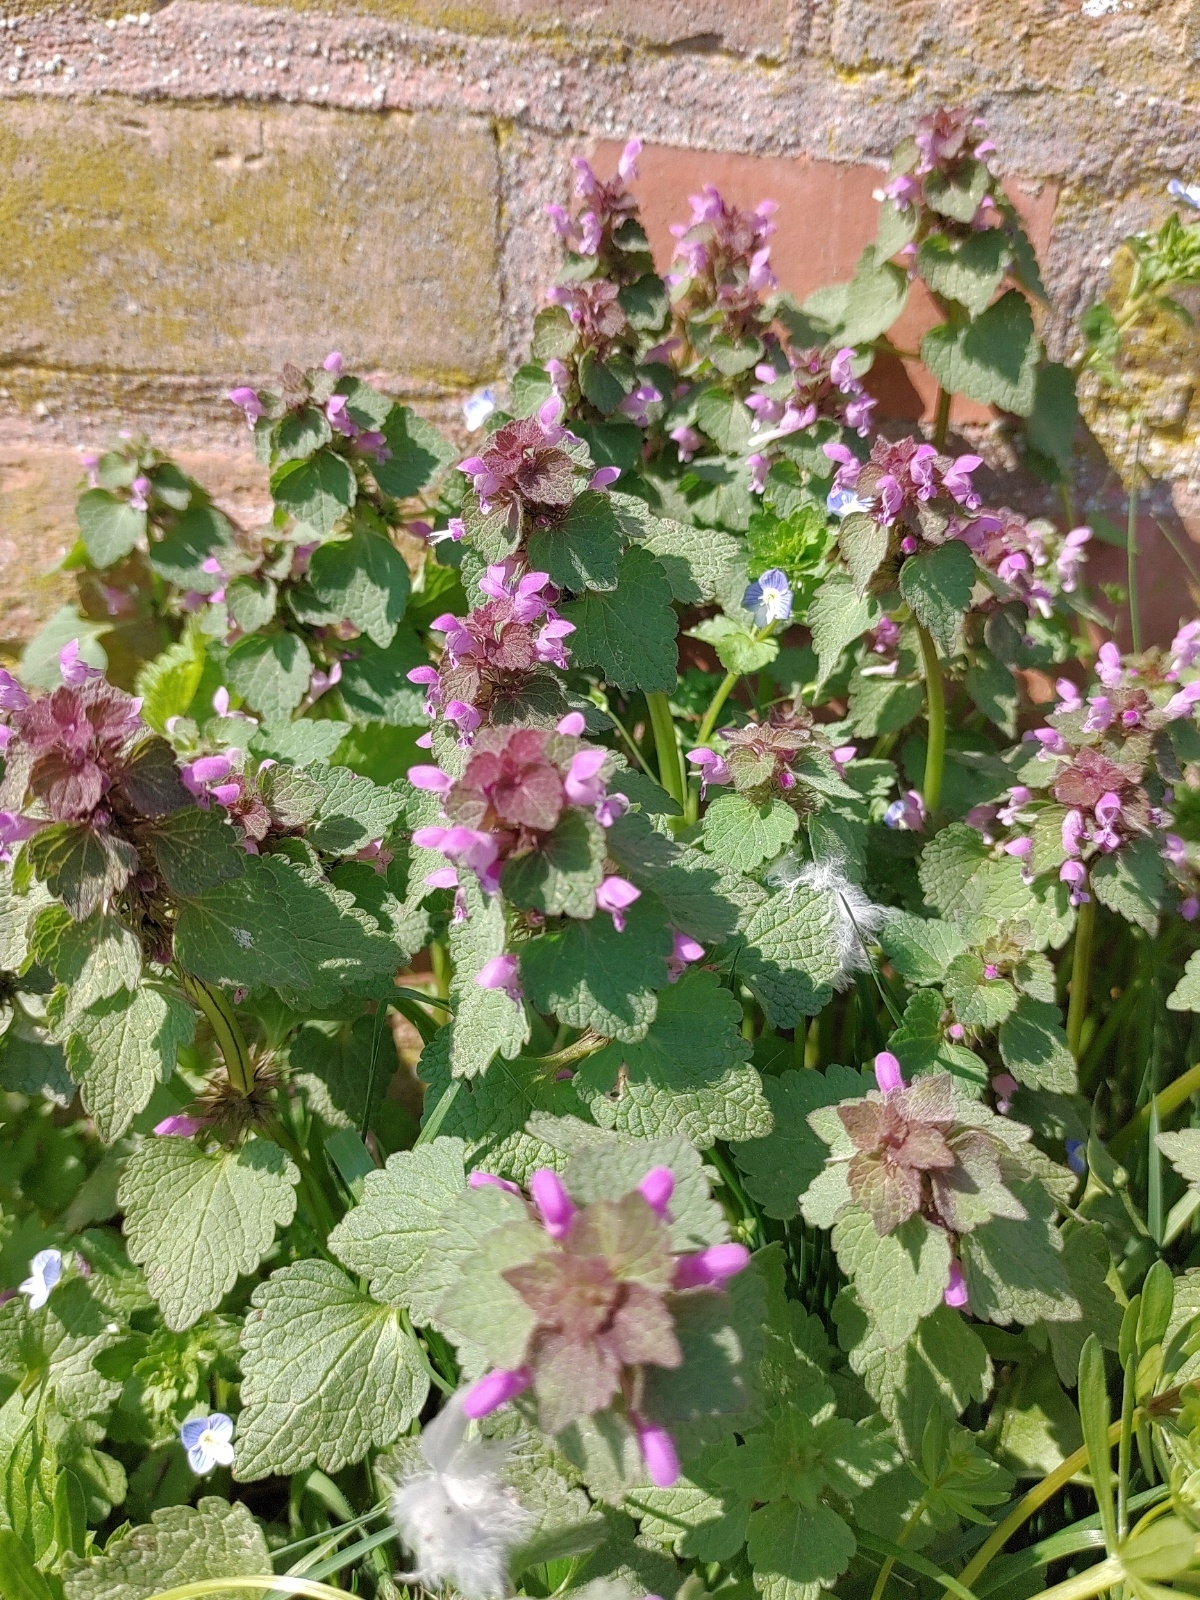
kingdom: Plantae
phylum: Tracheophyta
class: Magnoliopsida
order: Lamiales
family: Lamiaceae
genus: Lamium
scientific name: Lamium purpureum
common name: Red dead-nettle
